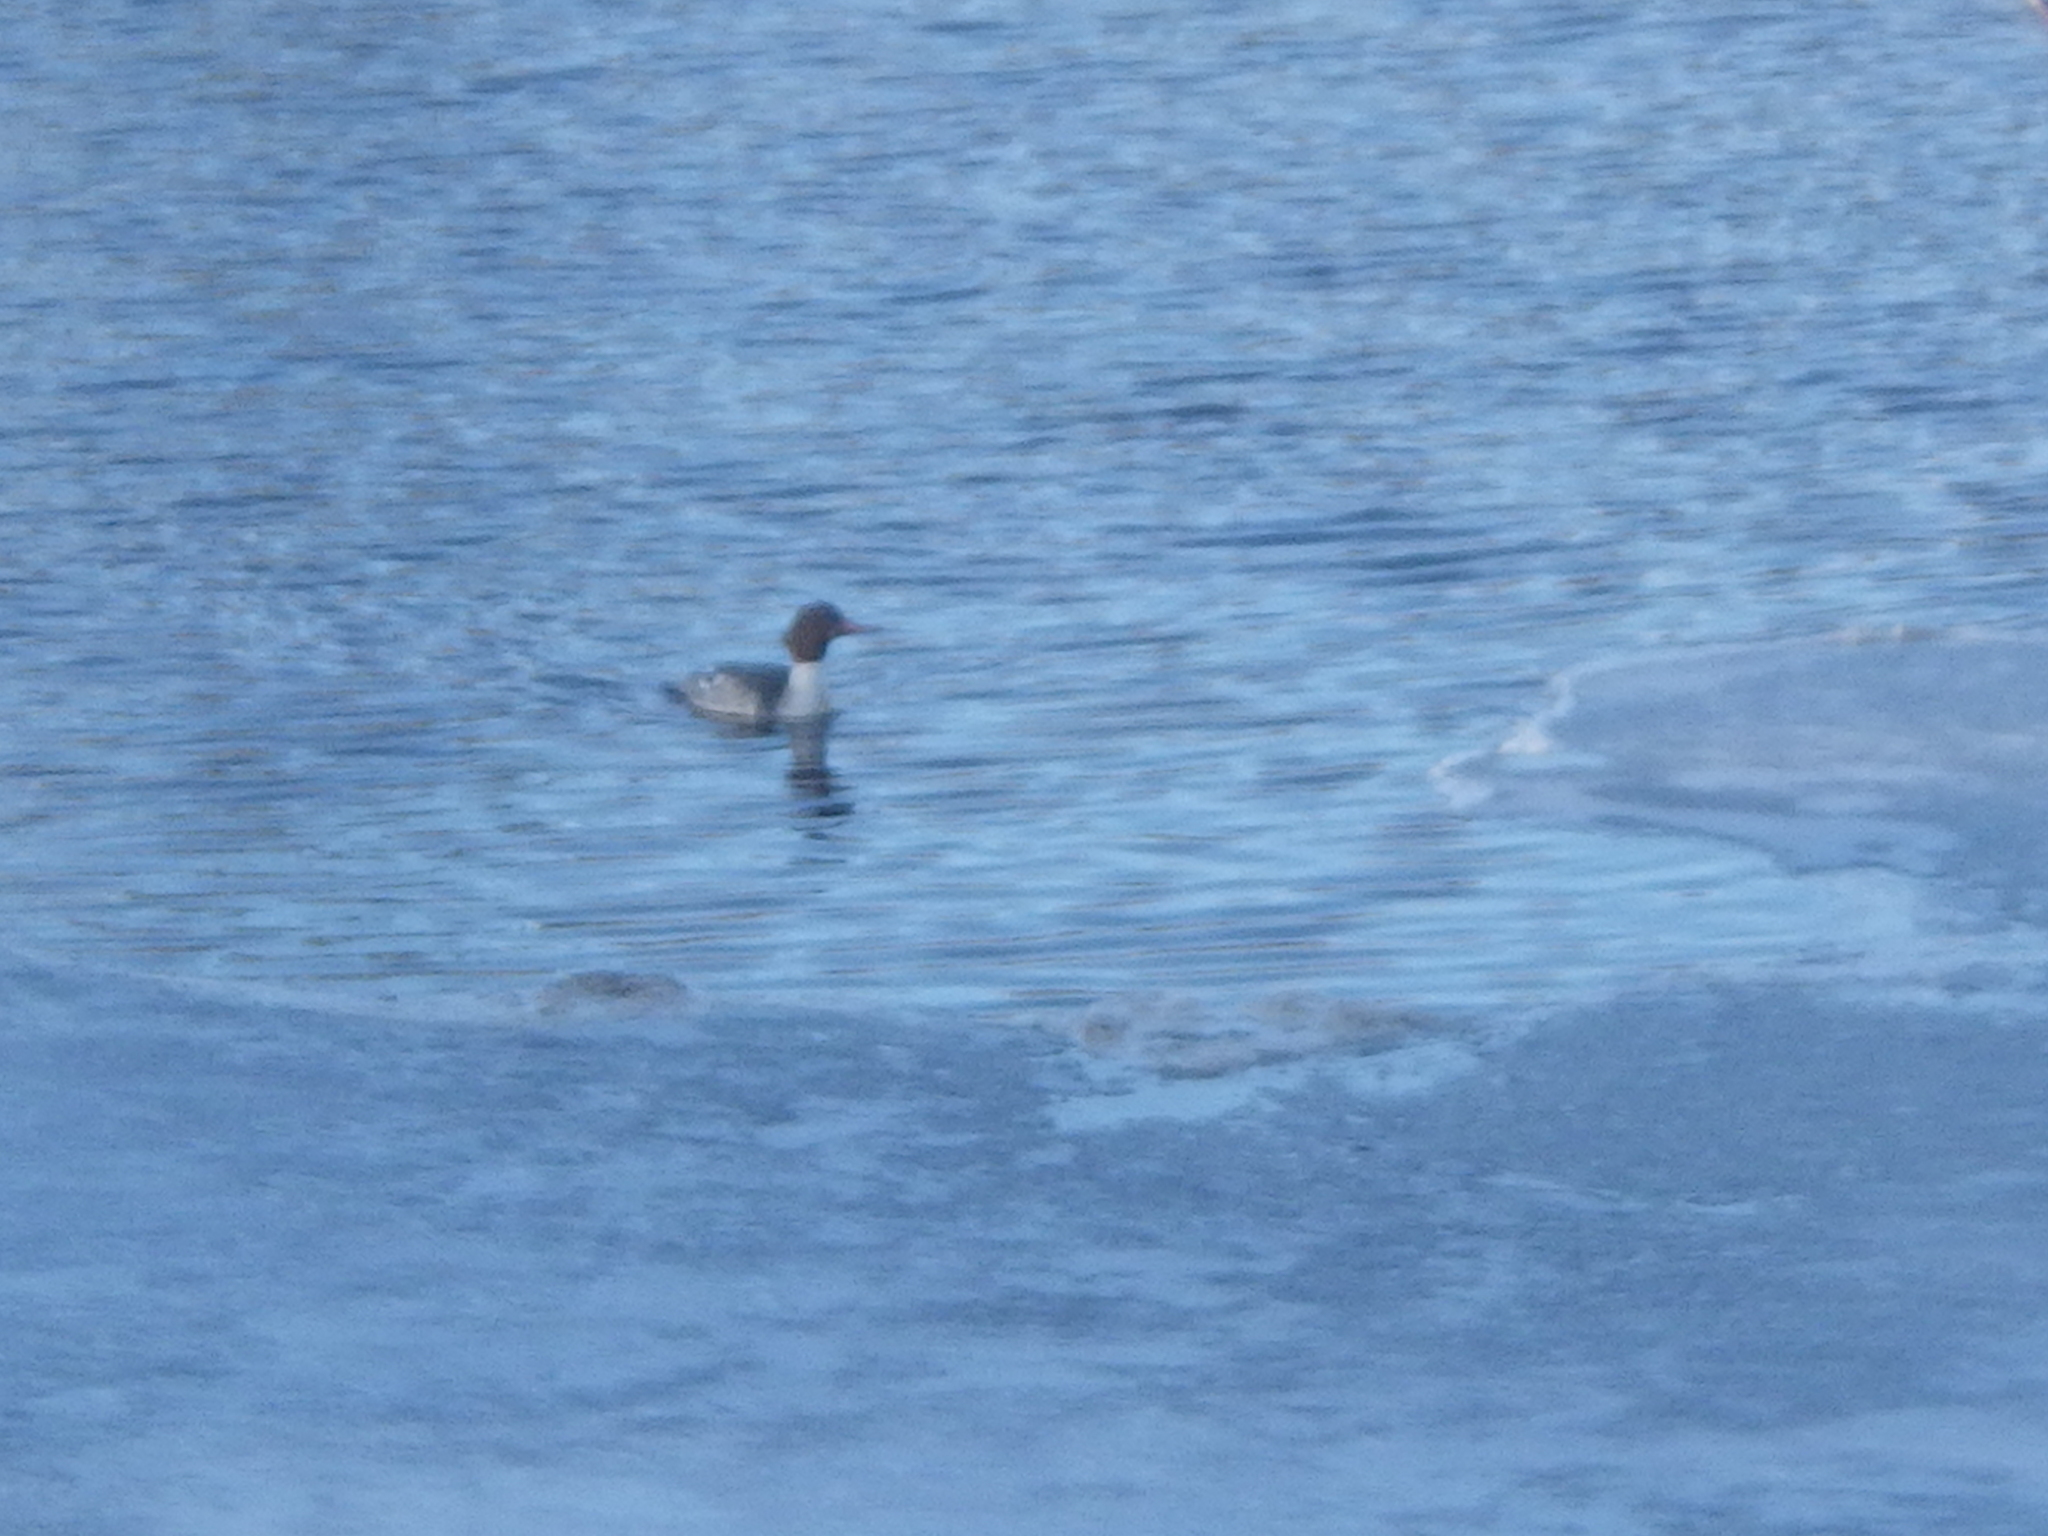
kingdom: Animalia
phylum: Chordata
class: Aves
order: Anseriformes
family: Anatidae
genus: Mergus
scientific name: Mergus merganser
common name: Common merganser
